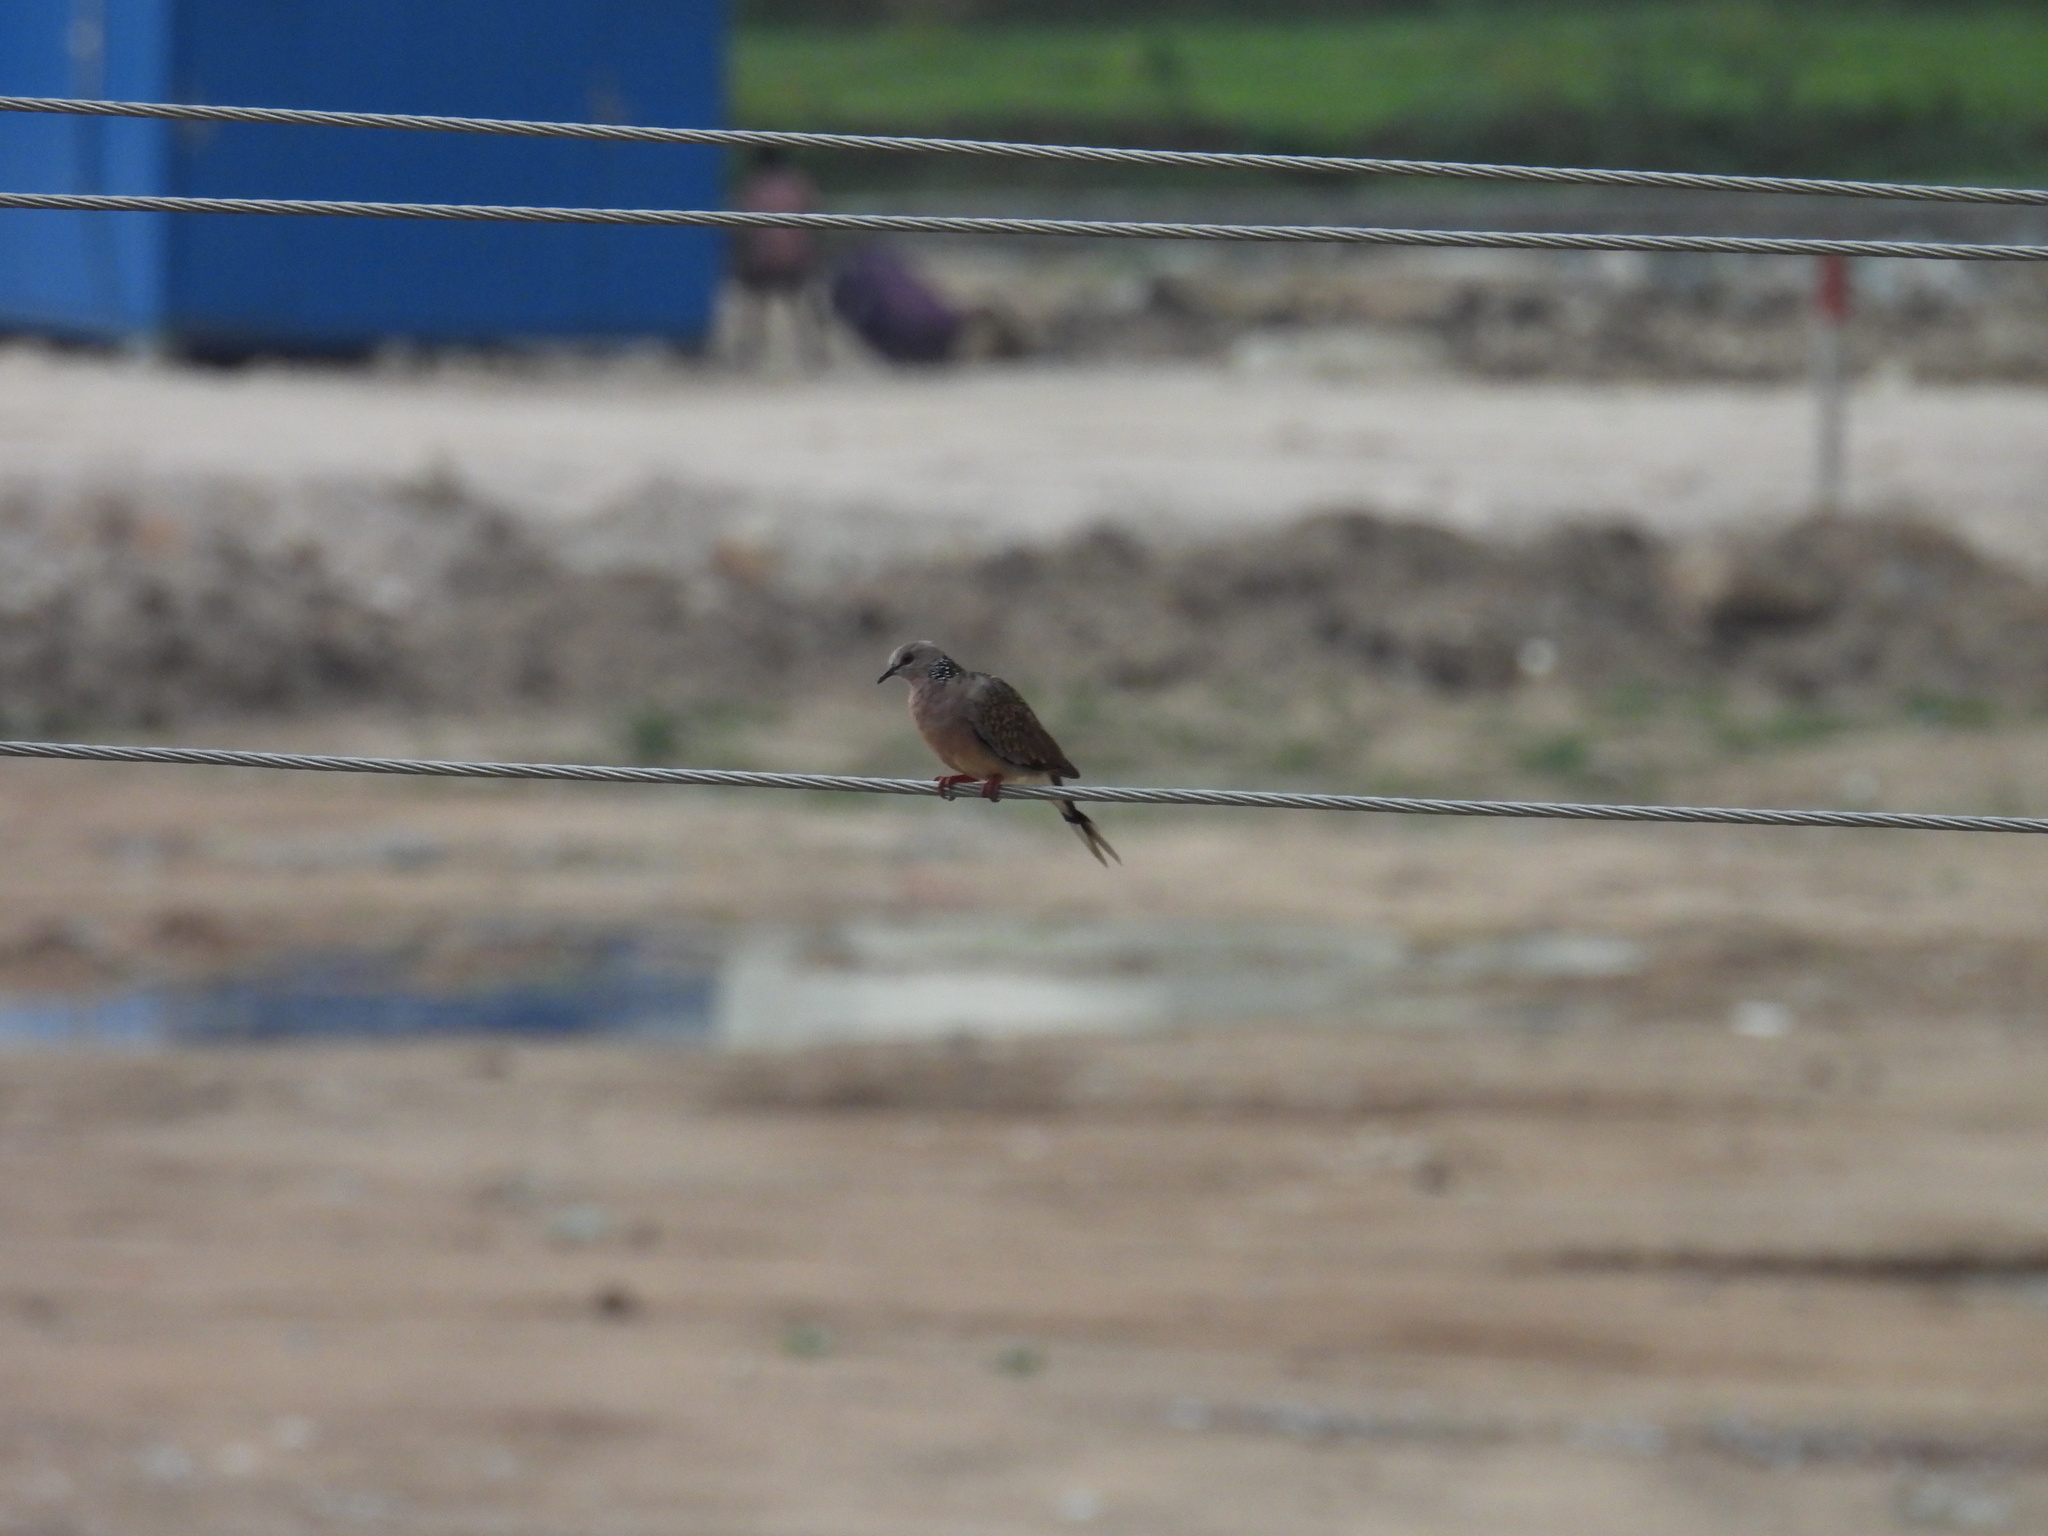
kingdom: Animalia
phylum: Chordata
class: Aves
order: Columbiformes
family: Columbidae
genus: Spilopelia
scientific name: Spilopelia chinensis
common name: Spotted dove
